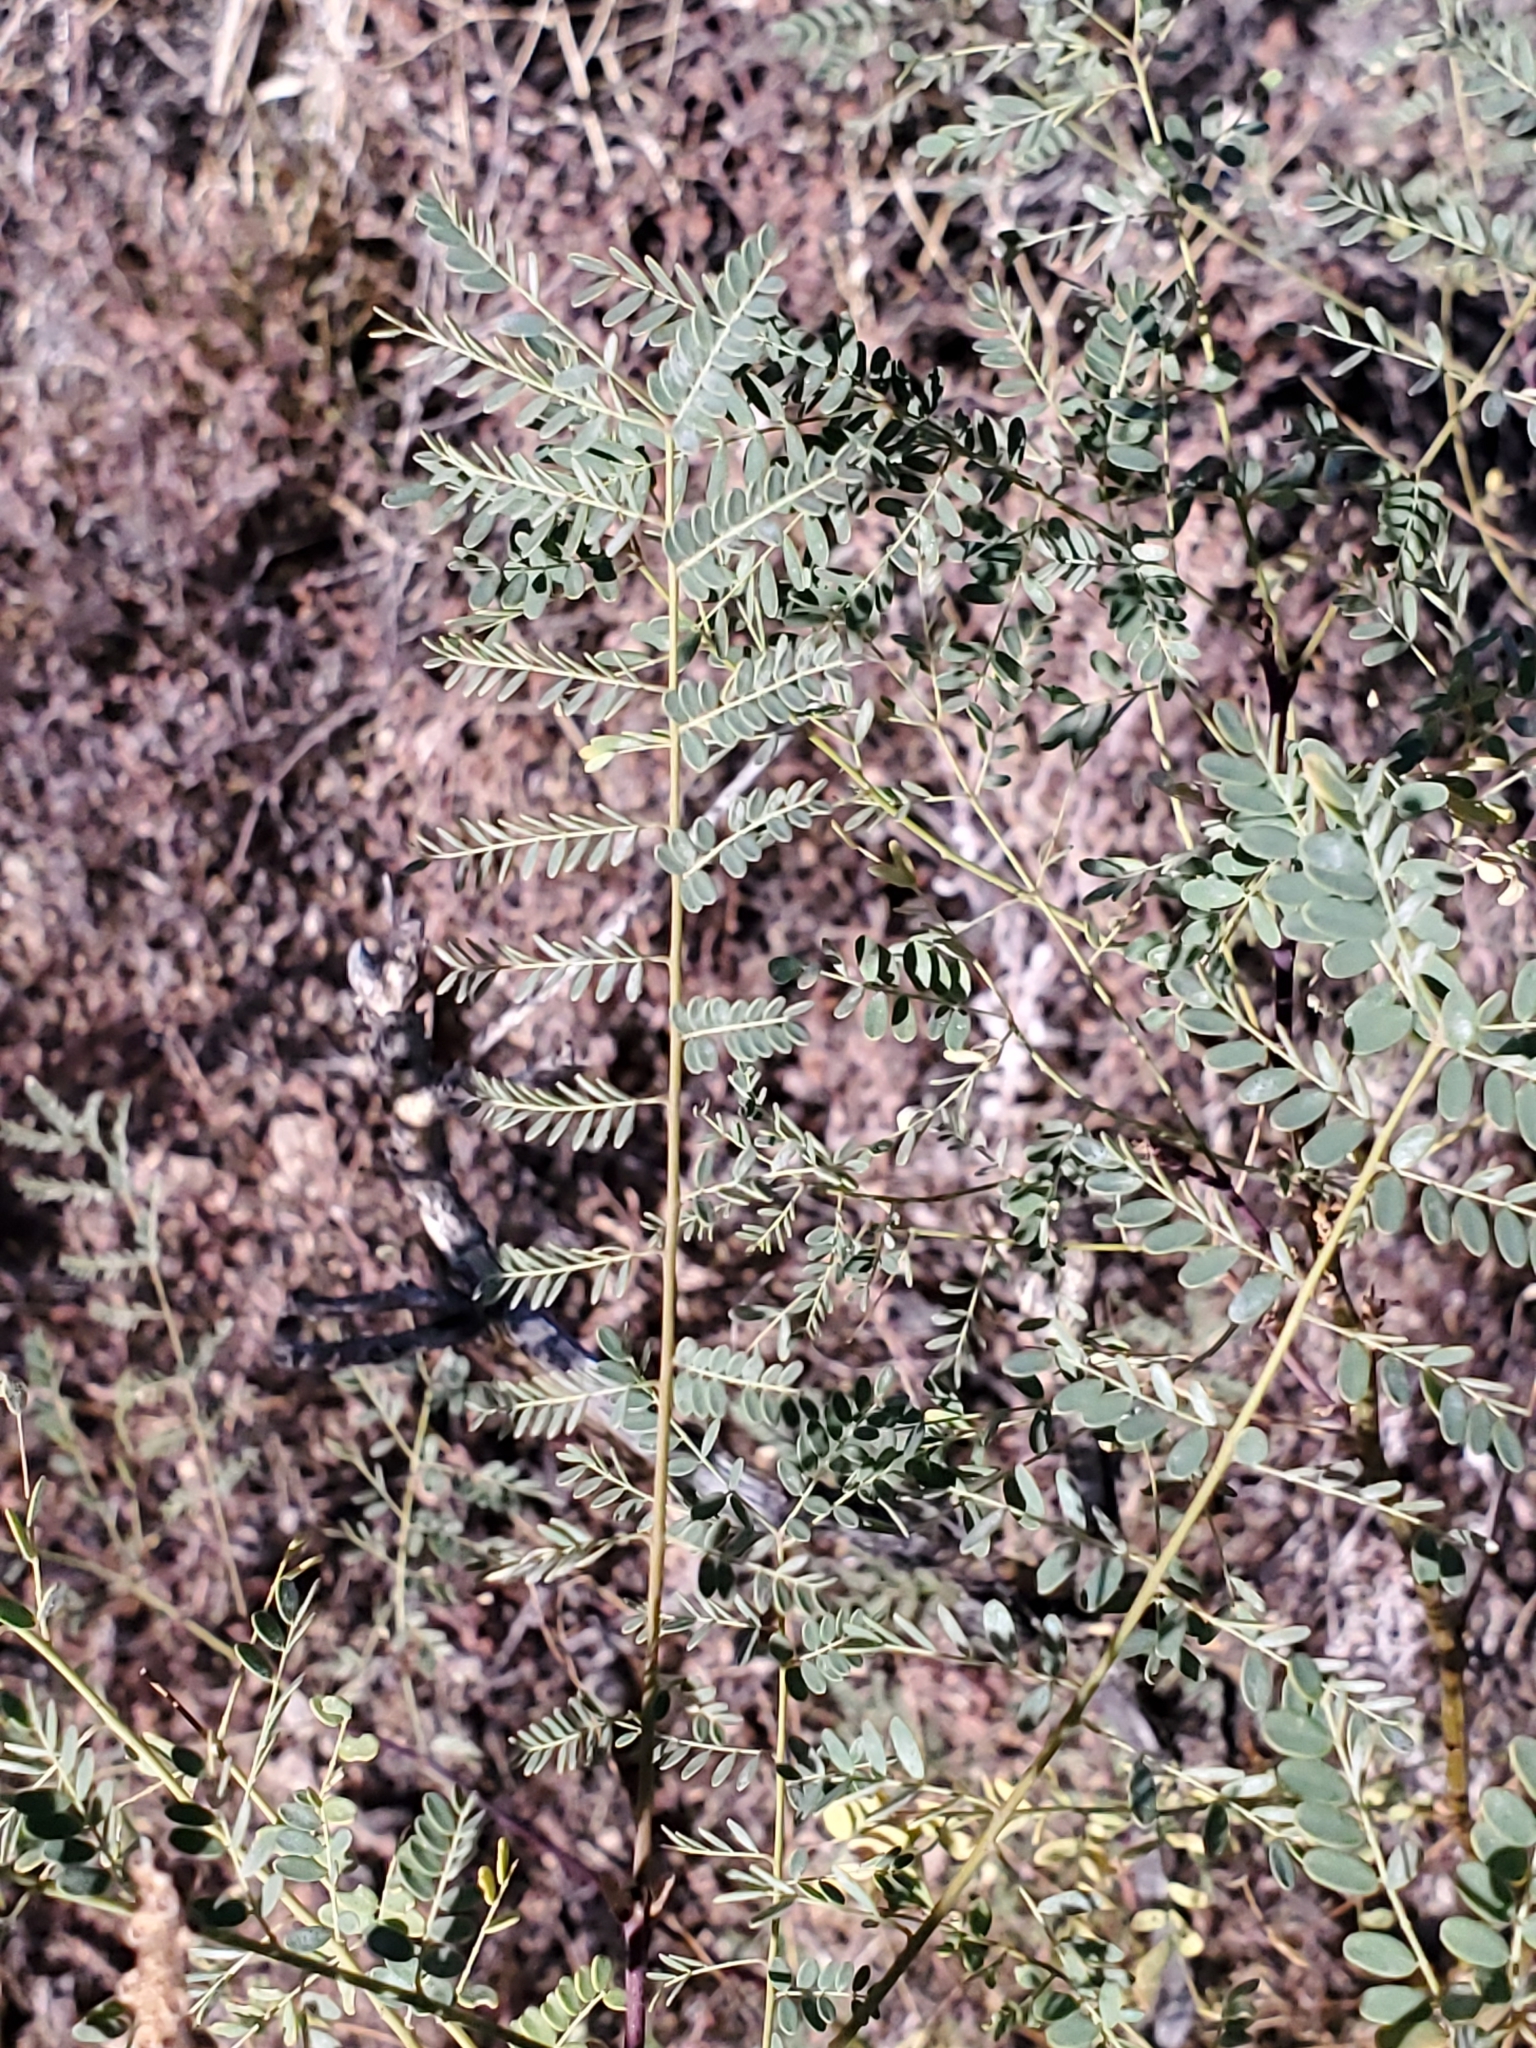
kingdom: Plantae
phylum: Tracheophyta
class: Magnoliopsida
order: Fabales
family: Fabaceae
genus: Erythrostemon
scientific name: Erythrostemon gilliesii
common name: Bird-of-paradise shrub
